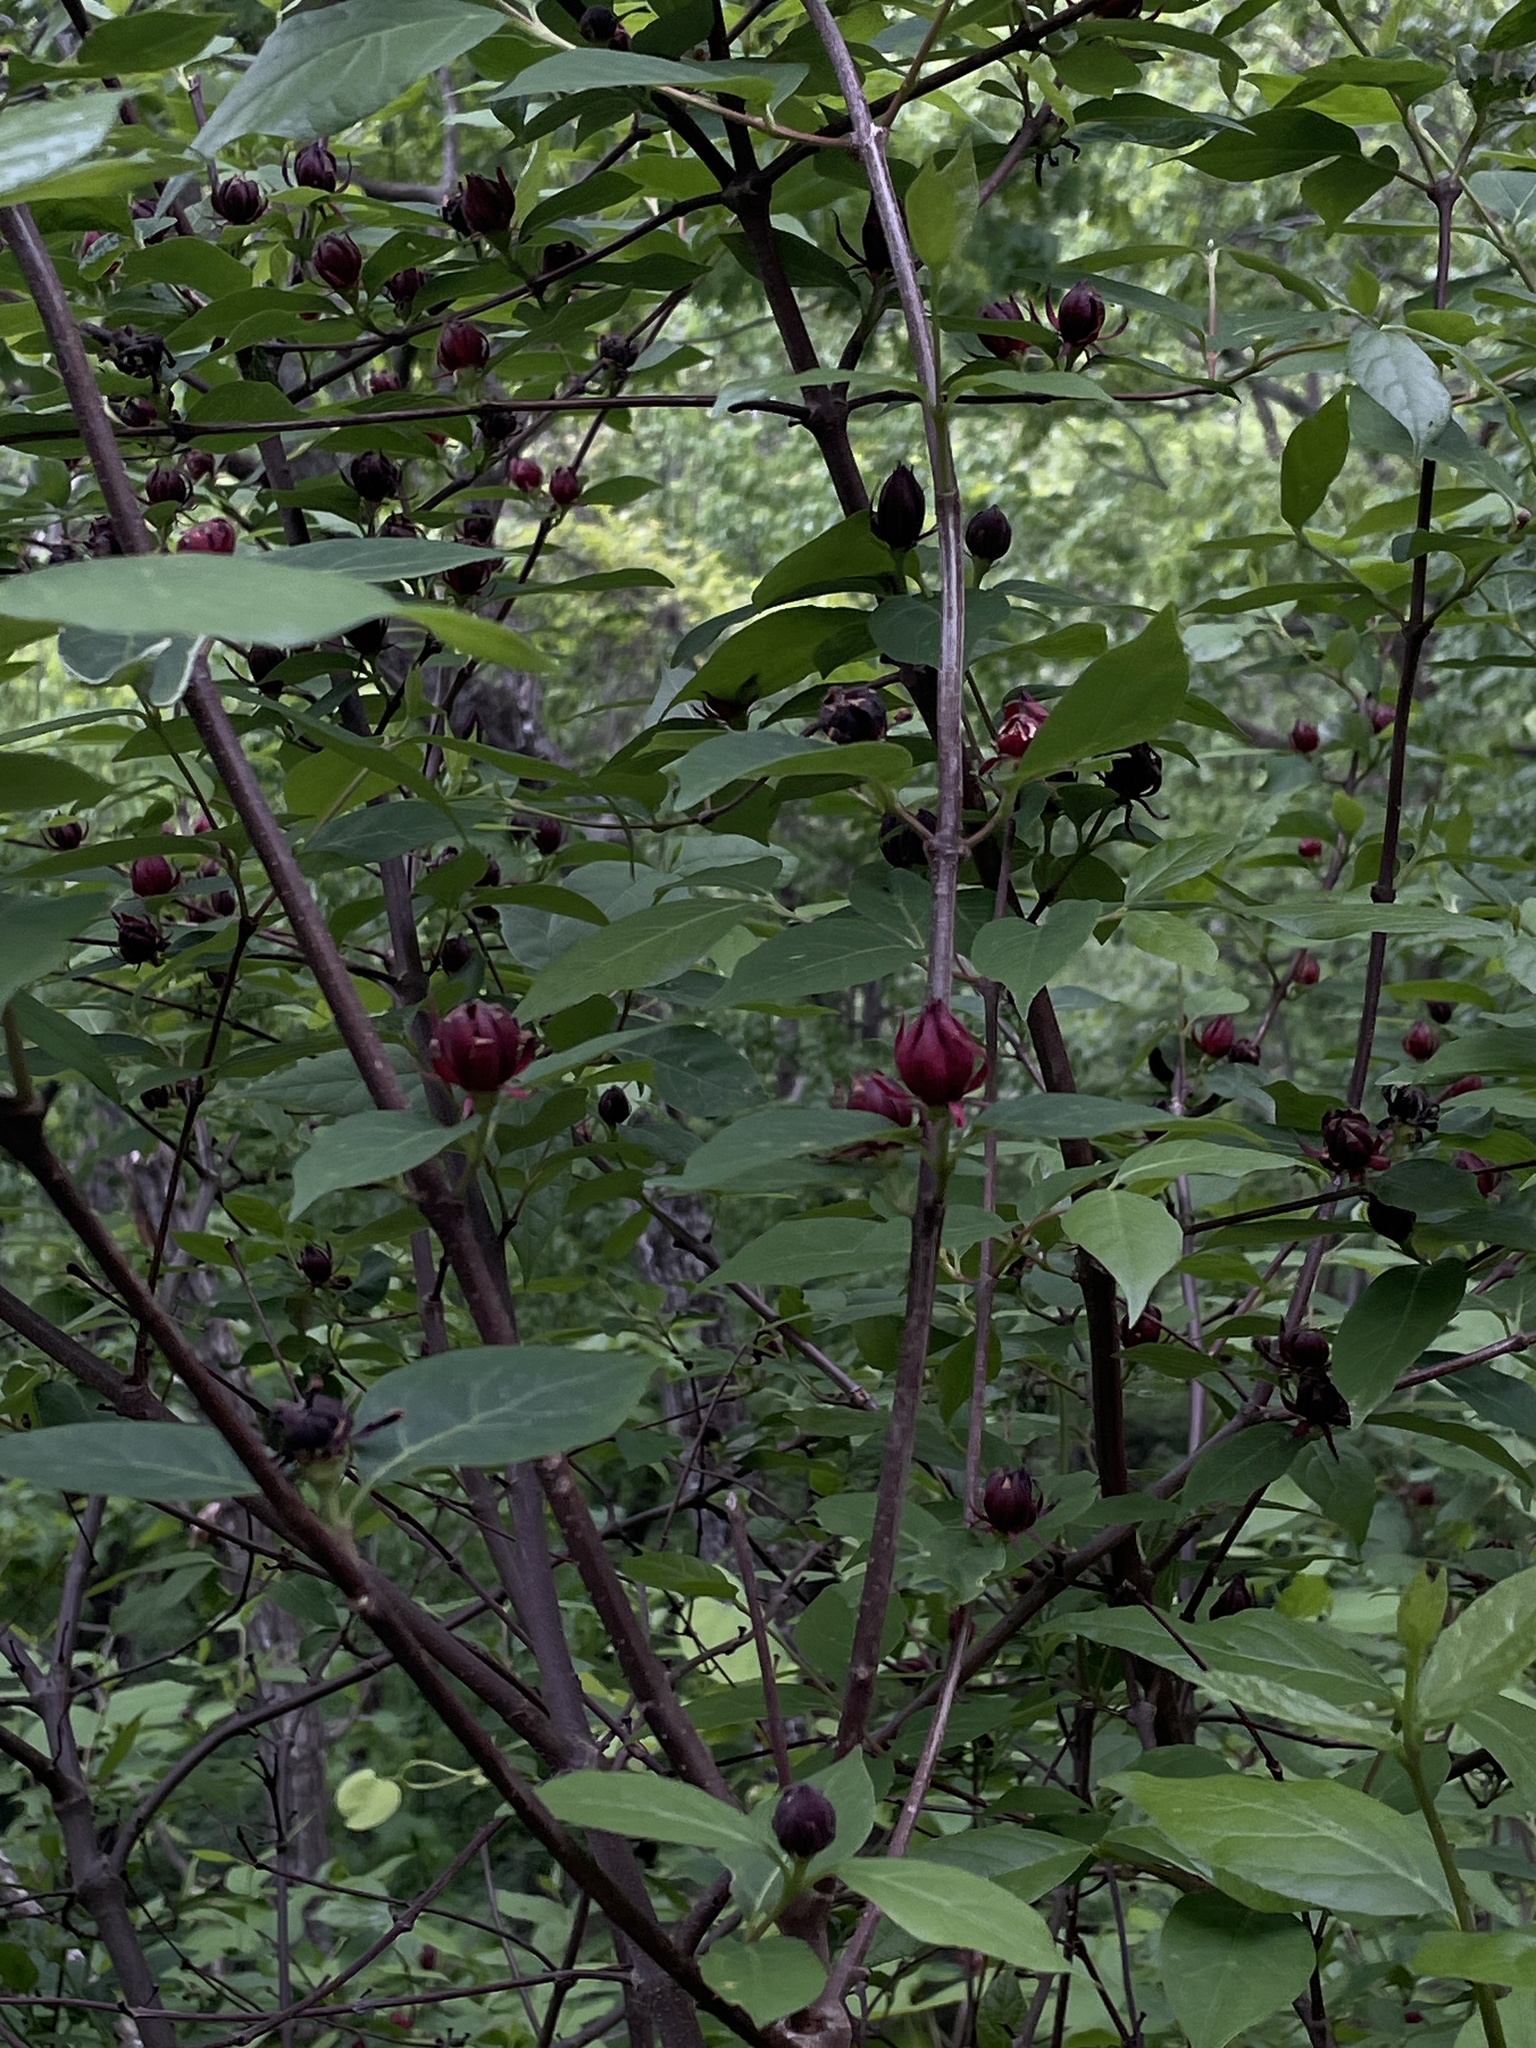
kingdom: Plantae
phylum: Tracheophyta
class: Magnoliopsida
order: Laurales
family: Calycanthaceae
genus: Calycanthus
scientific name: Calycanthus floridus
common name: Carolina-allspice
